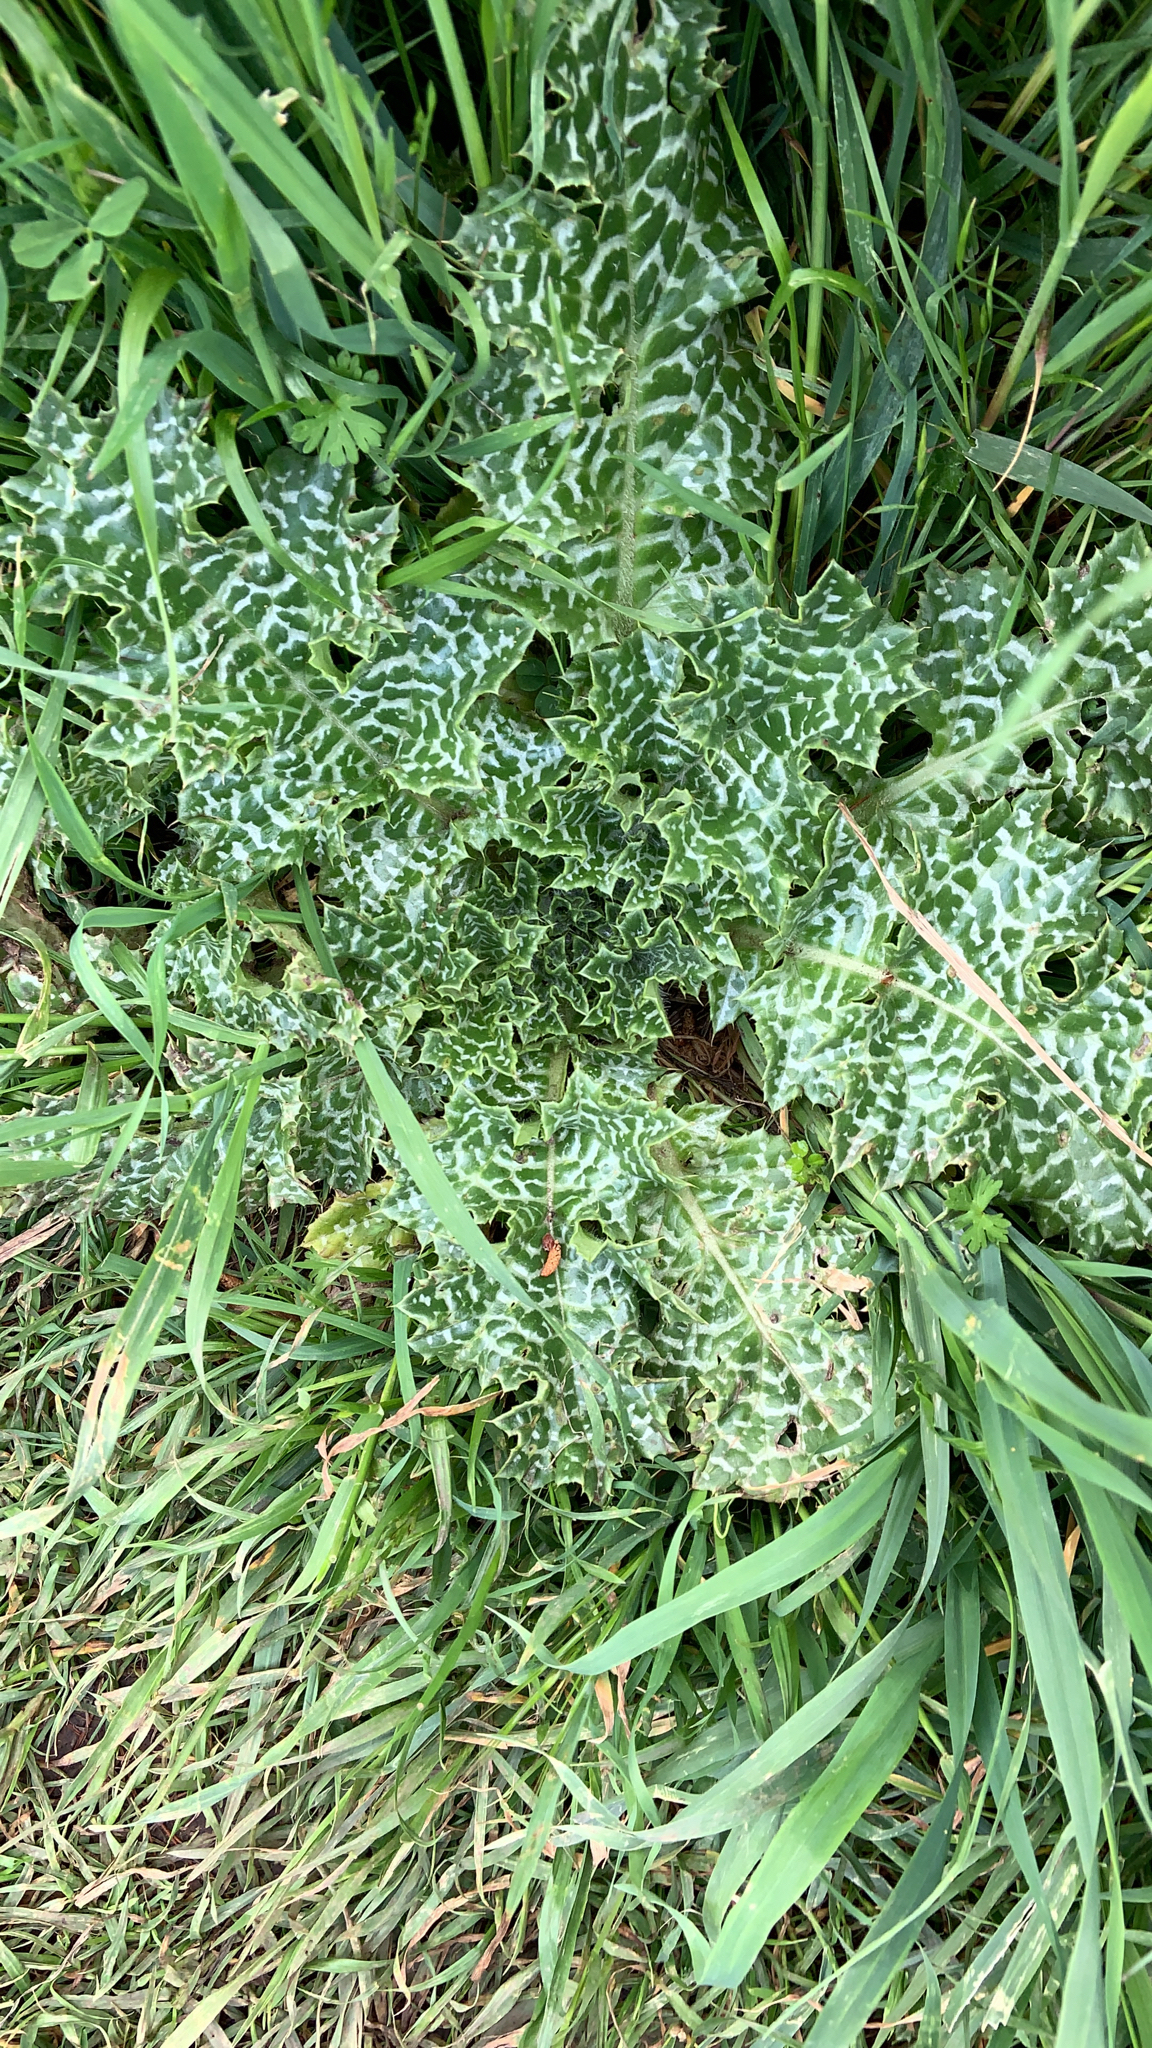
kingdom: Plantae
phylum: Tracheophyta
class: Magnoliopsida
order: Asterales
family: Asteraceae
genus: Silybum
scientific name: Silybum marianum
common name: Milk thistle
